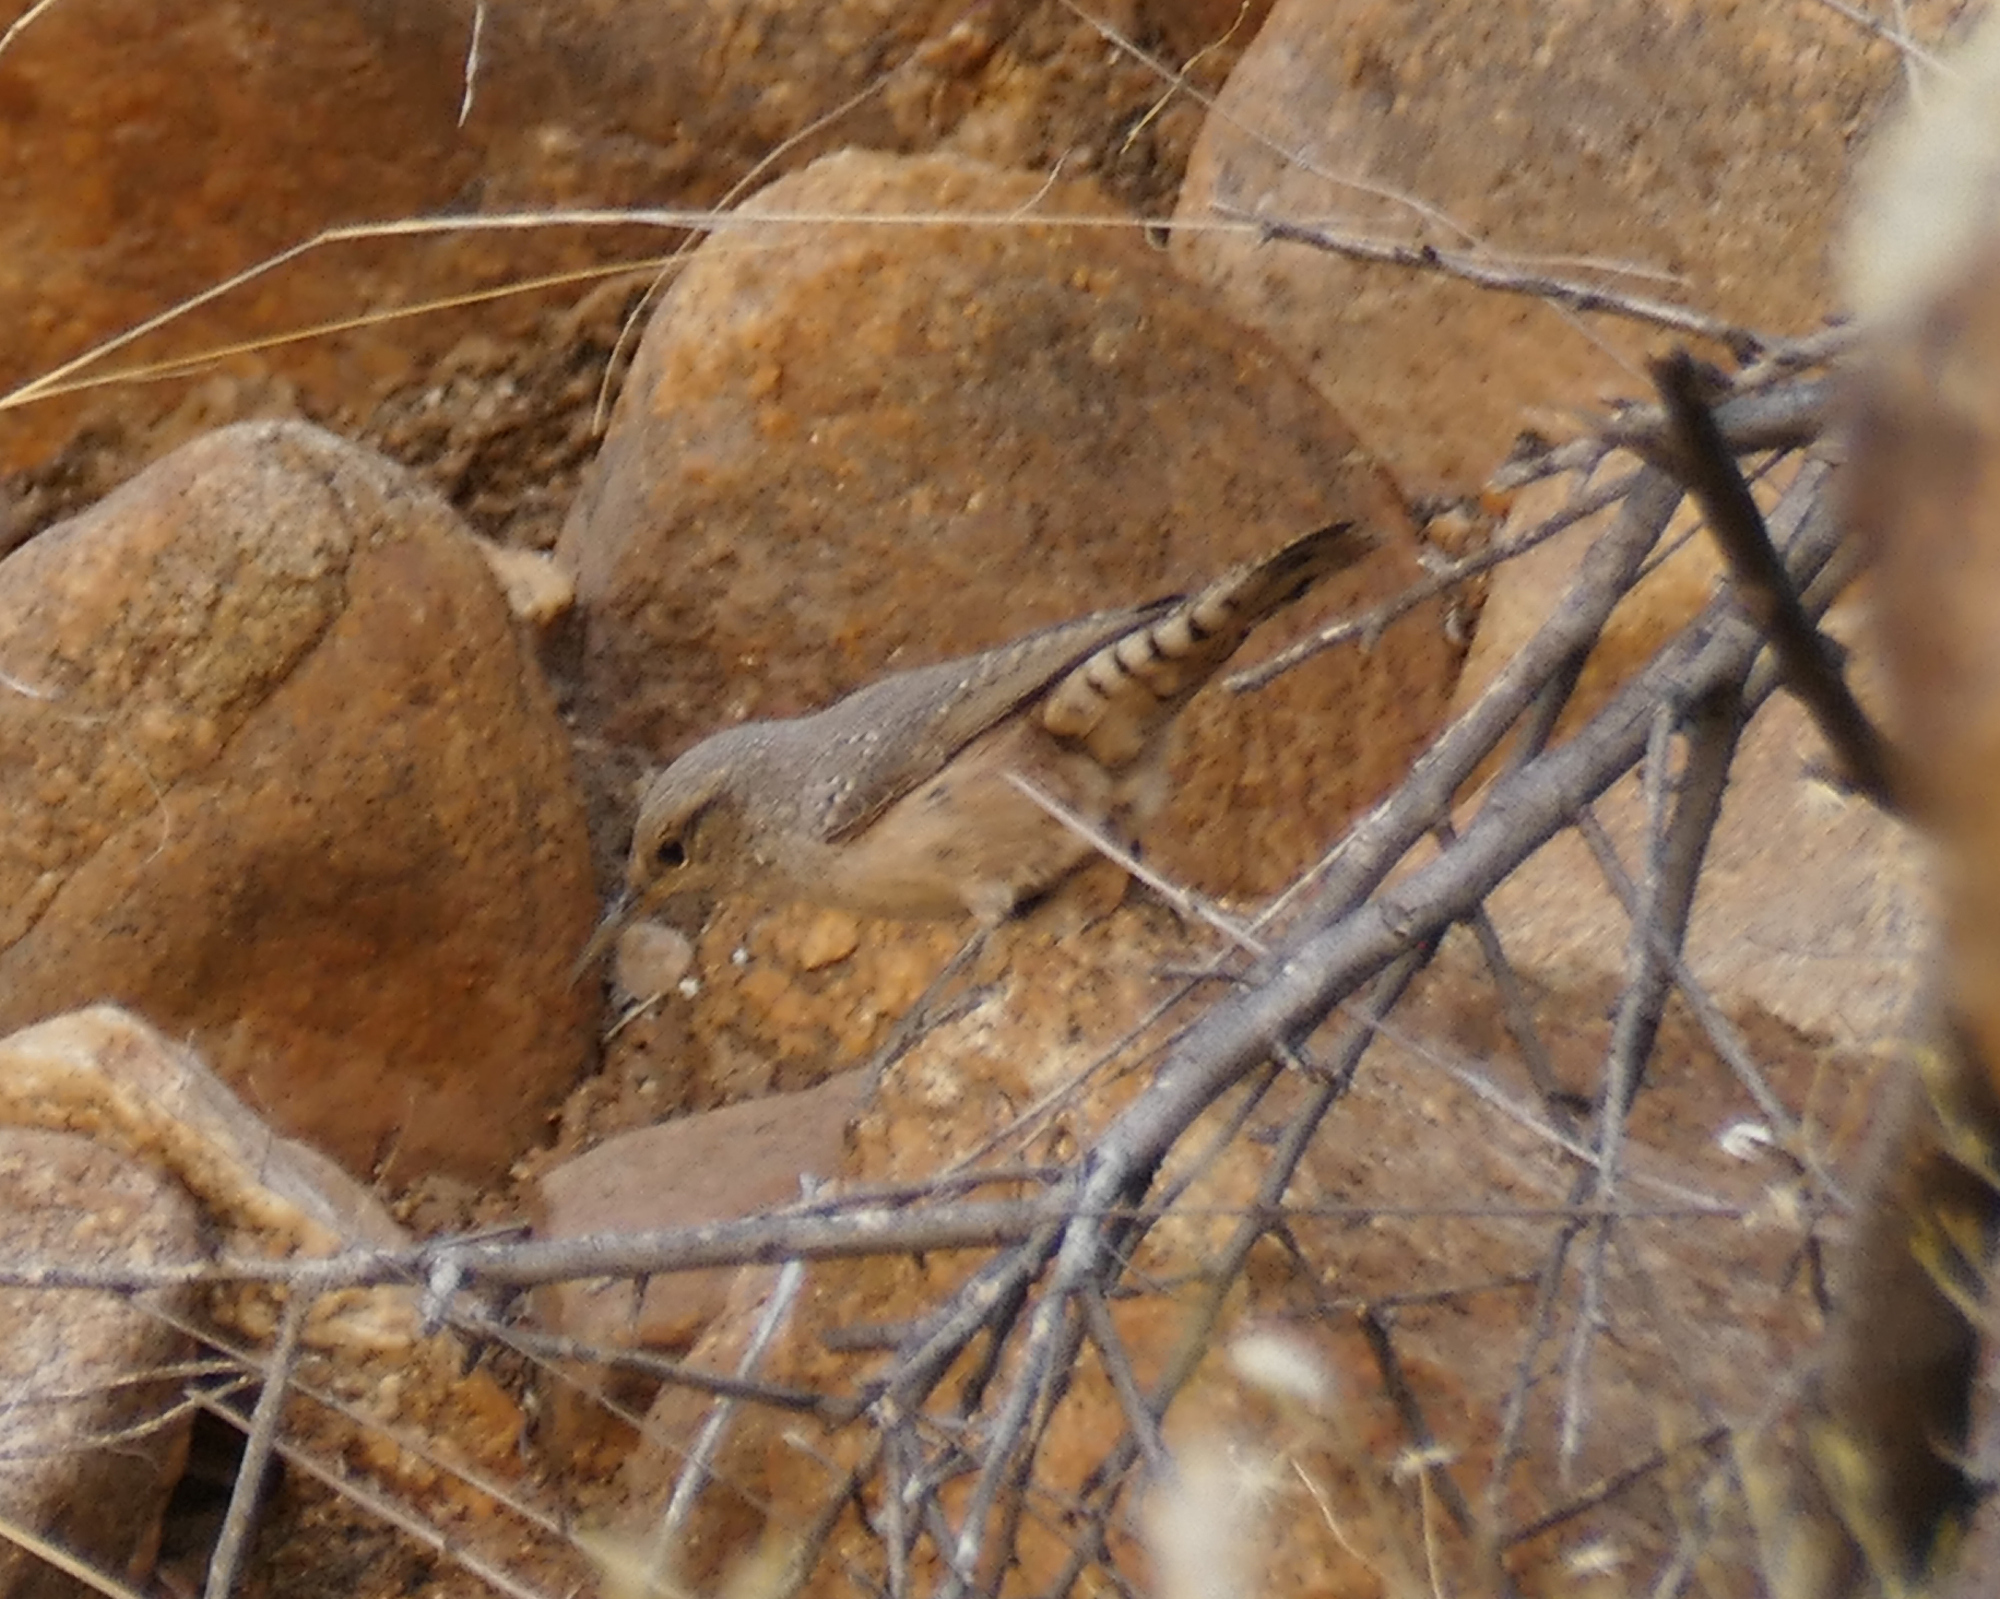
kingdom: Animalia
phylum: Chordata
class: Aves
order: Passeriformes
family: Troglodytidae
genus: Salpinctes
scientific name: Salpinctes obsoletus
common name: Rock wren
